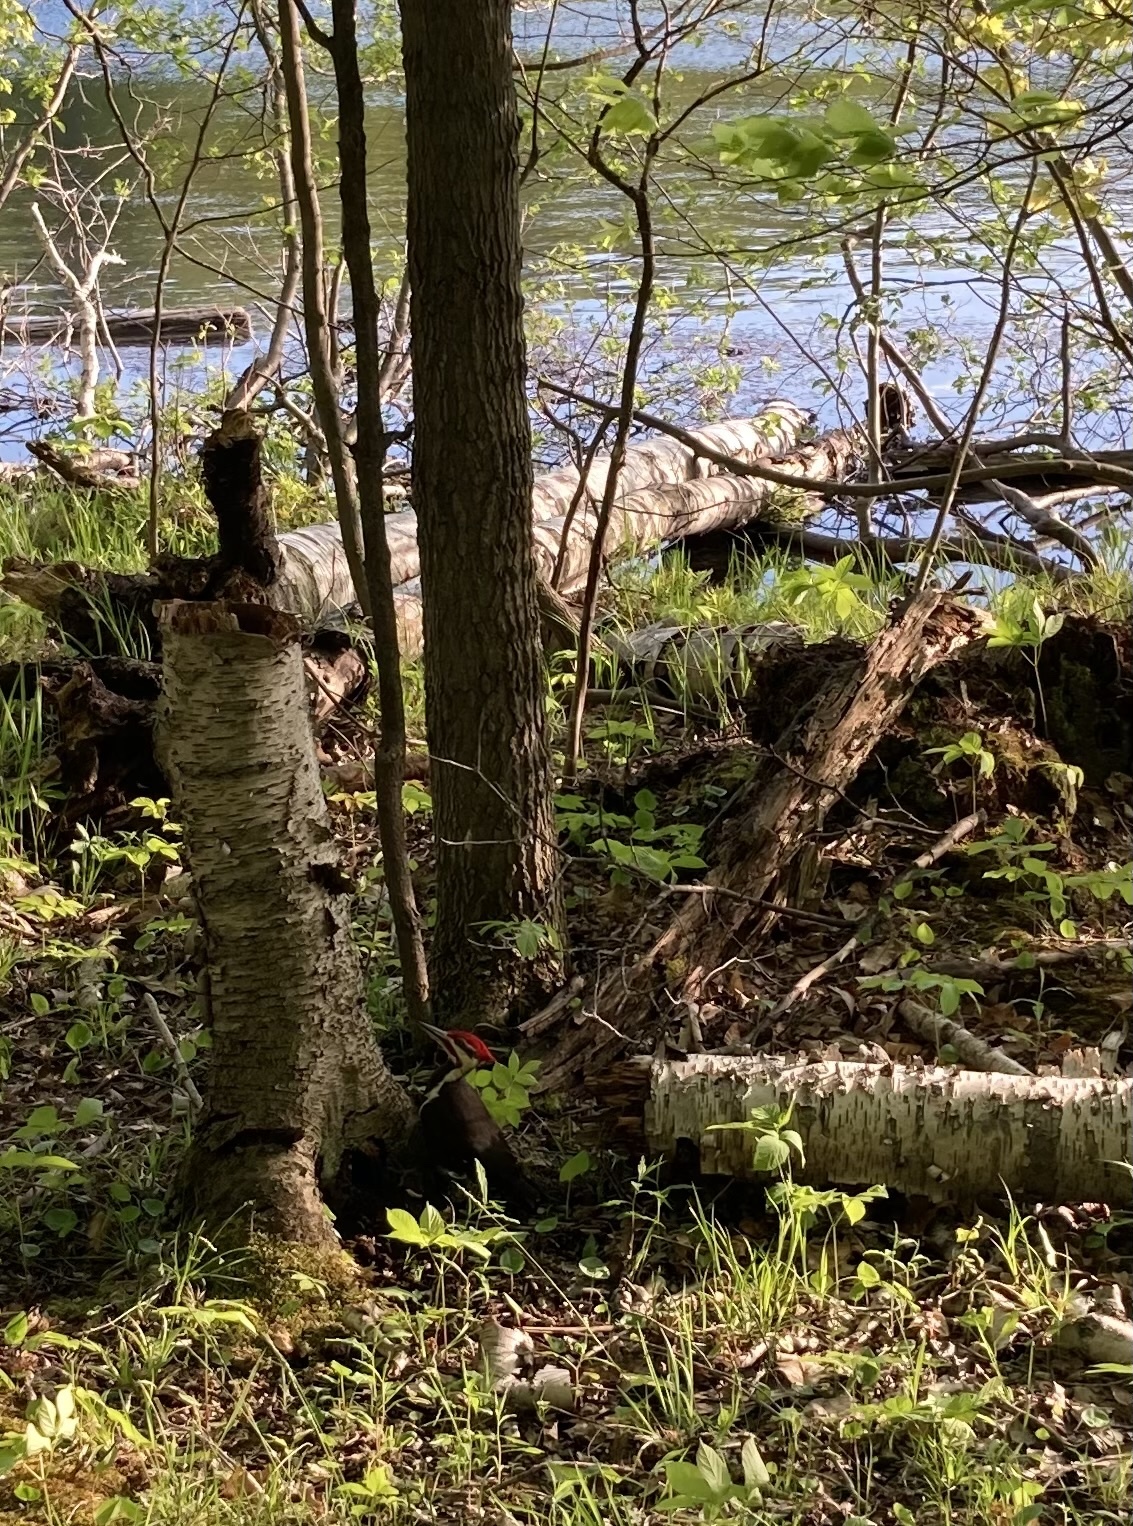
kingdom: Animalia
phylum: Chordata
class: Aves
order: Piciformes
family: Picidae
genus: Dryocopus
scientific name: Dryocopus pileatus
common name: Pileated woodpecker
